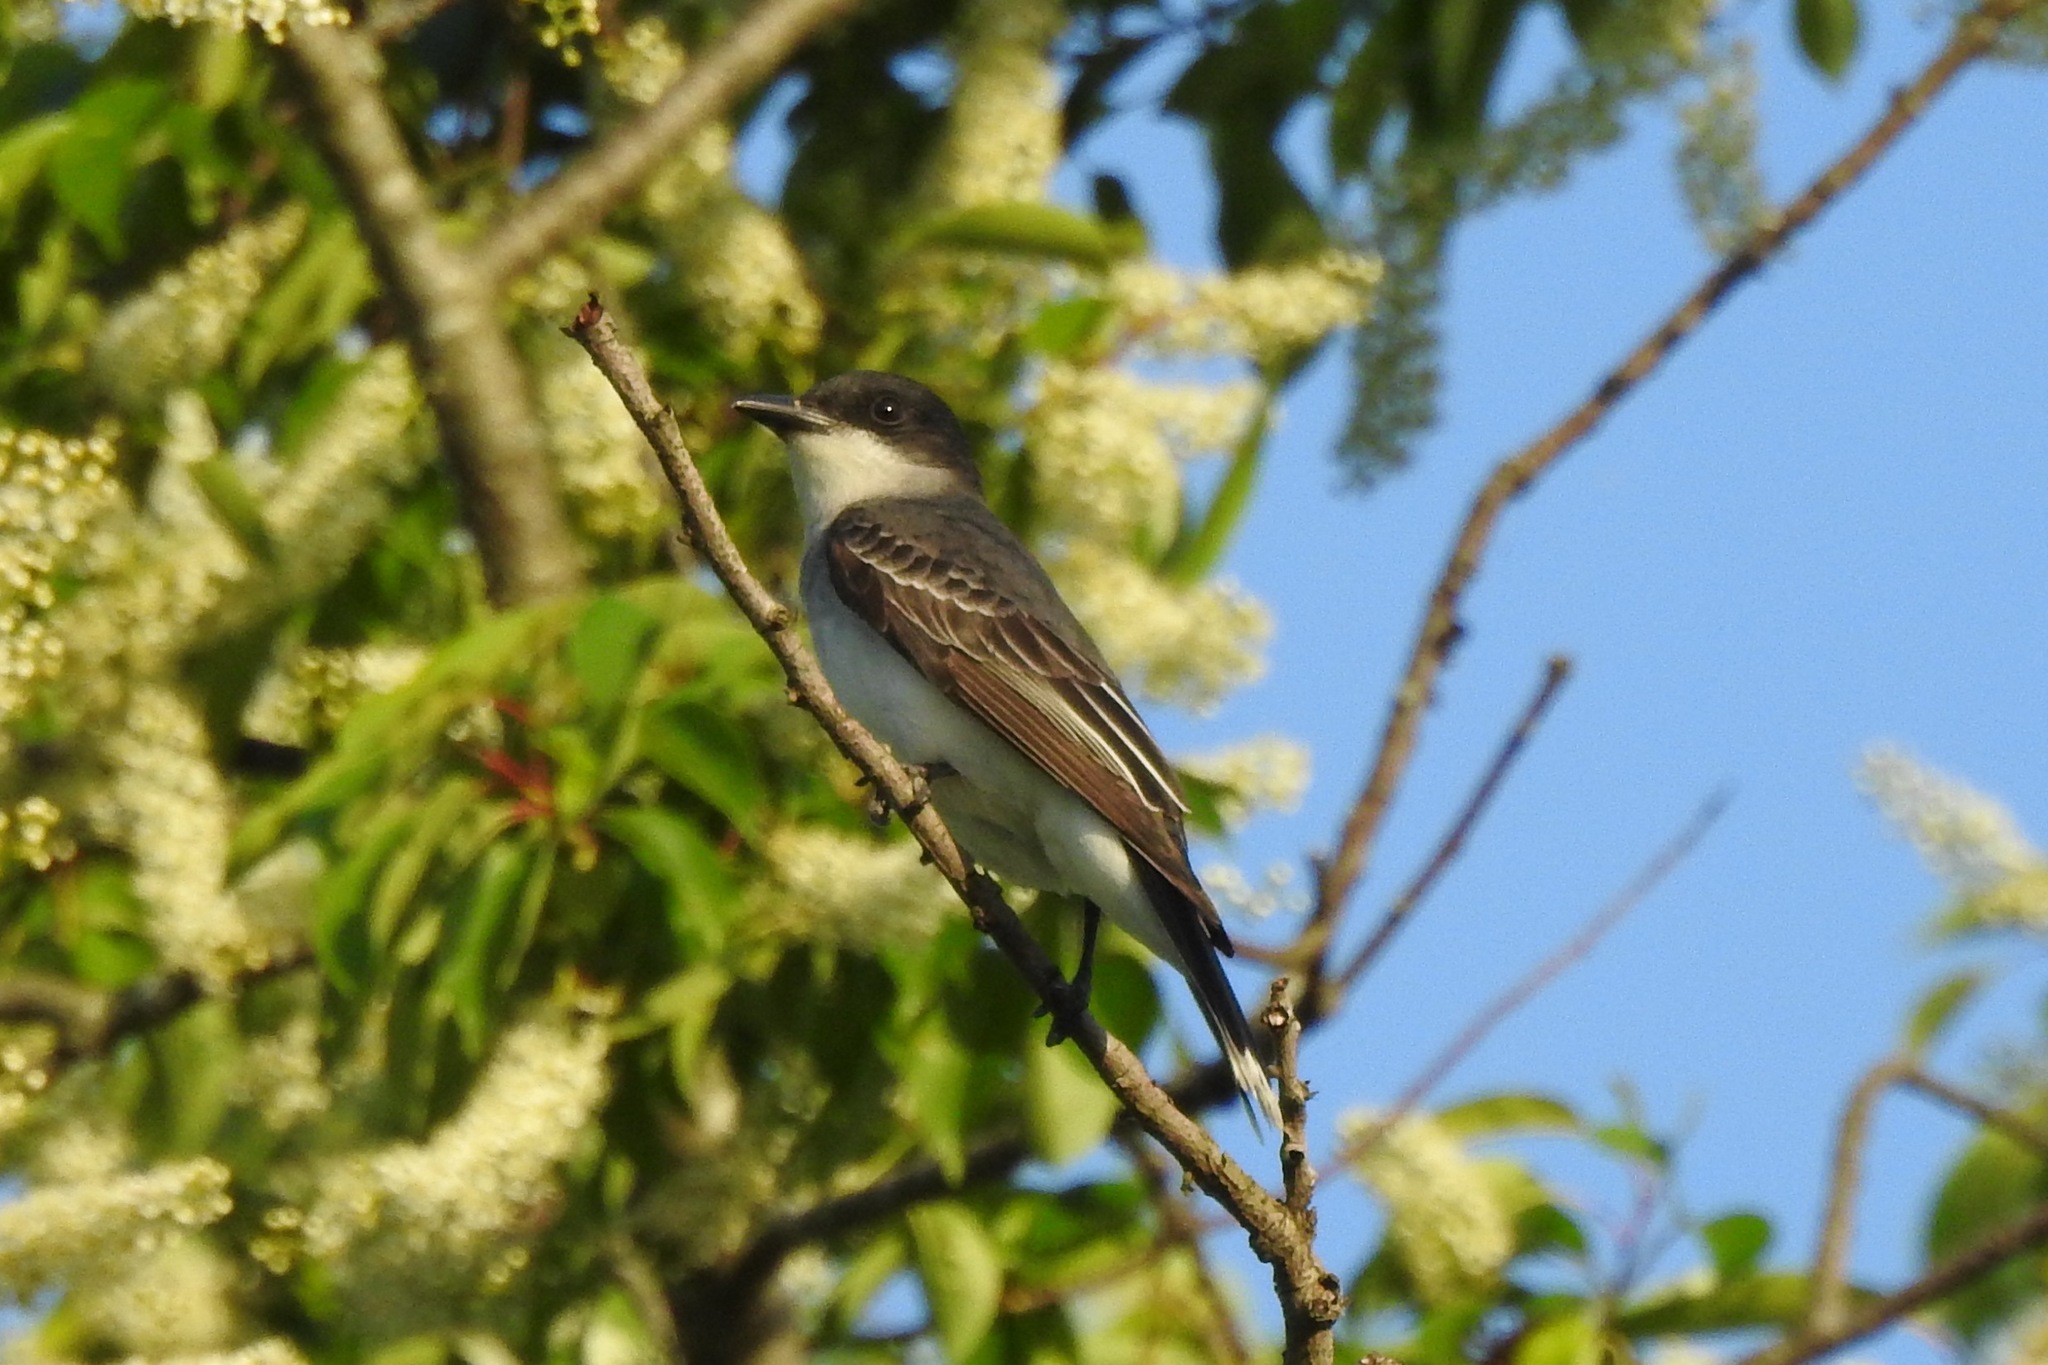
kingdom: Animalia
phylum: Chordata
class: Aves
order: Passeriformes
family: Tyrannidae
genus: Tyrannus
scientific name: Tyrannus tyrannus
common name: Eastern kingbird
